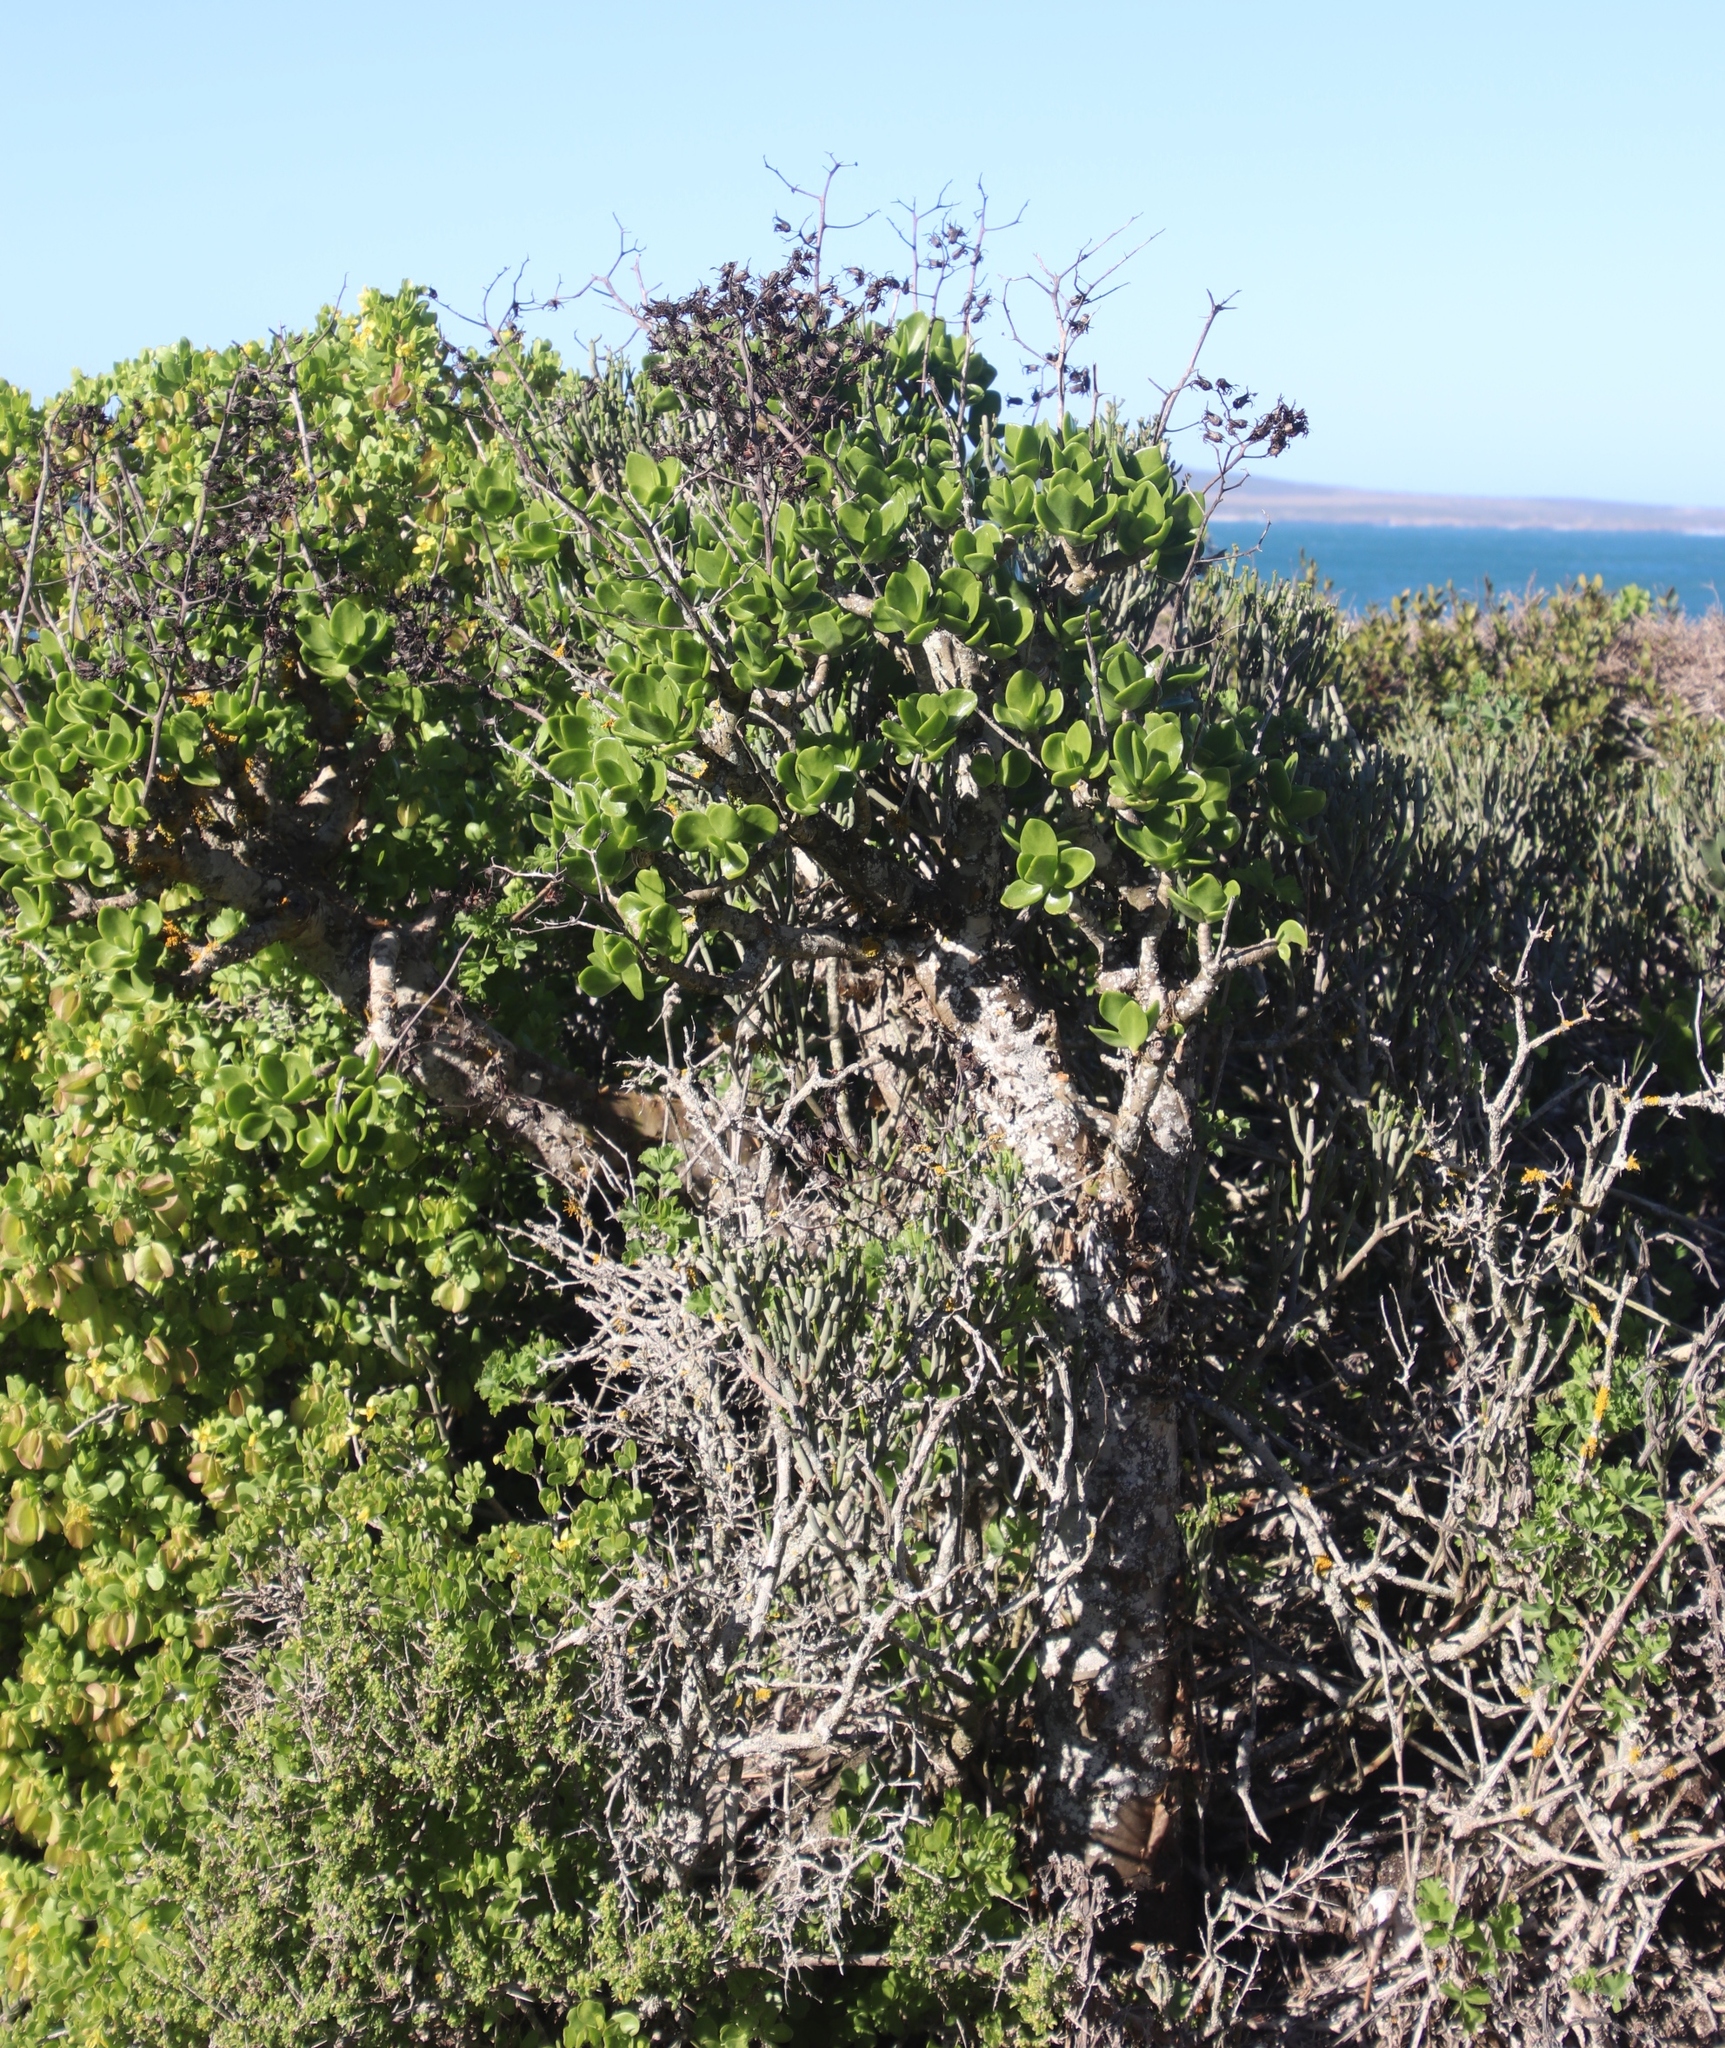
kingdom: Plantae
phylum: Tracheophyta
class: Magnoliopsida
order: Saxifragales
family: Crassulaceae
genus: Tylecodon
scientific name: Tylecodon paniculatus
